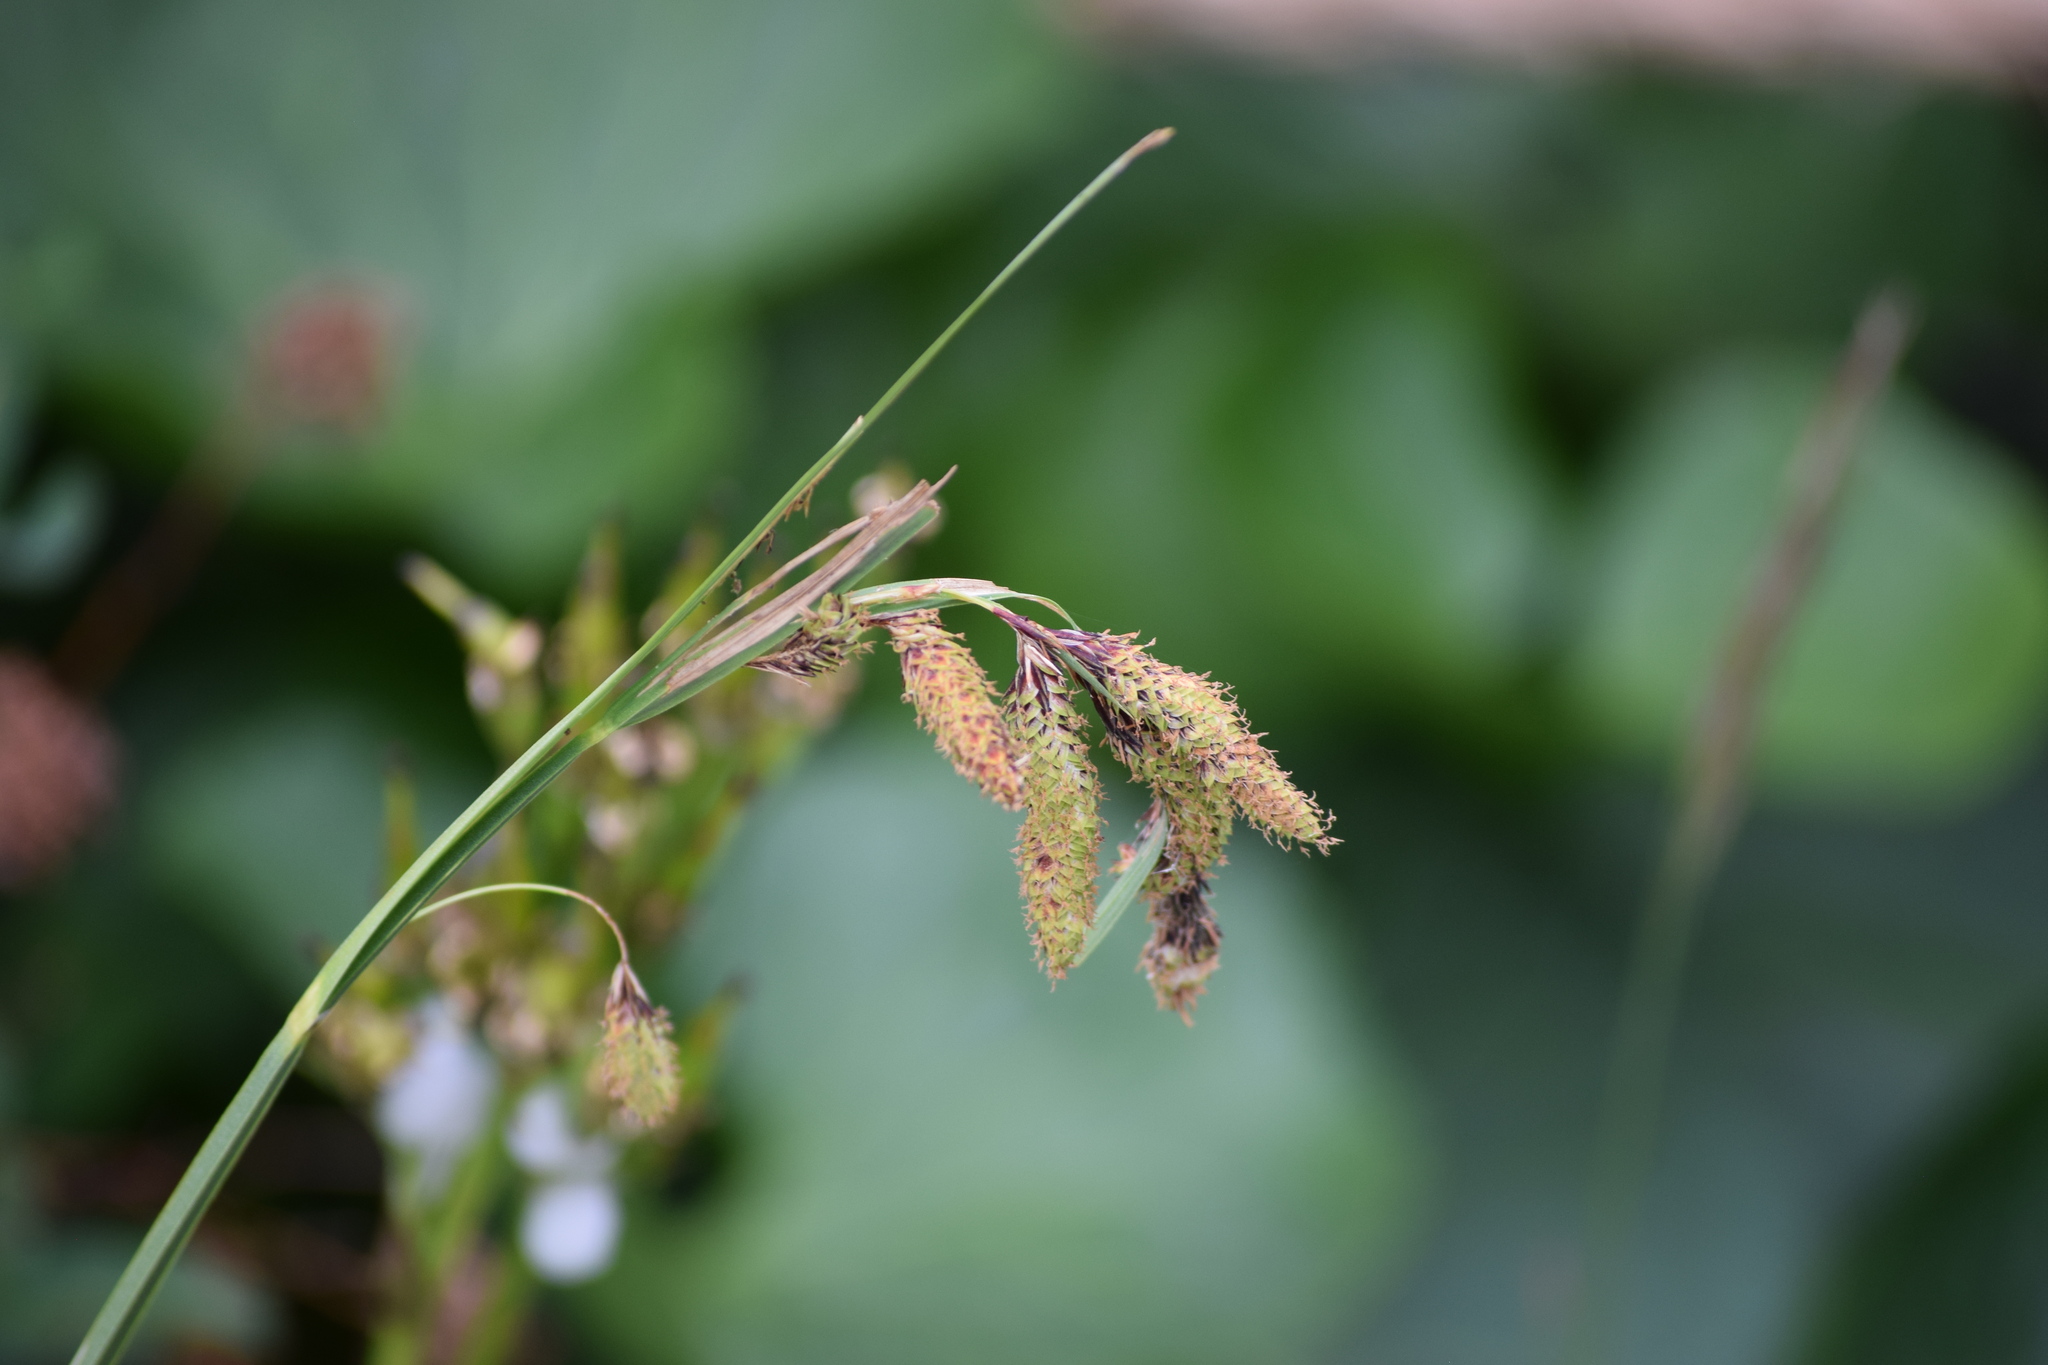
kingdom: Plantae
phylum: Tracheophyta
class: Liliopsida
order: Poales
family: Cyperaceae
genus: Carex
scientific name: Carex mertensii
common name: Mertens' sedge
